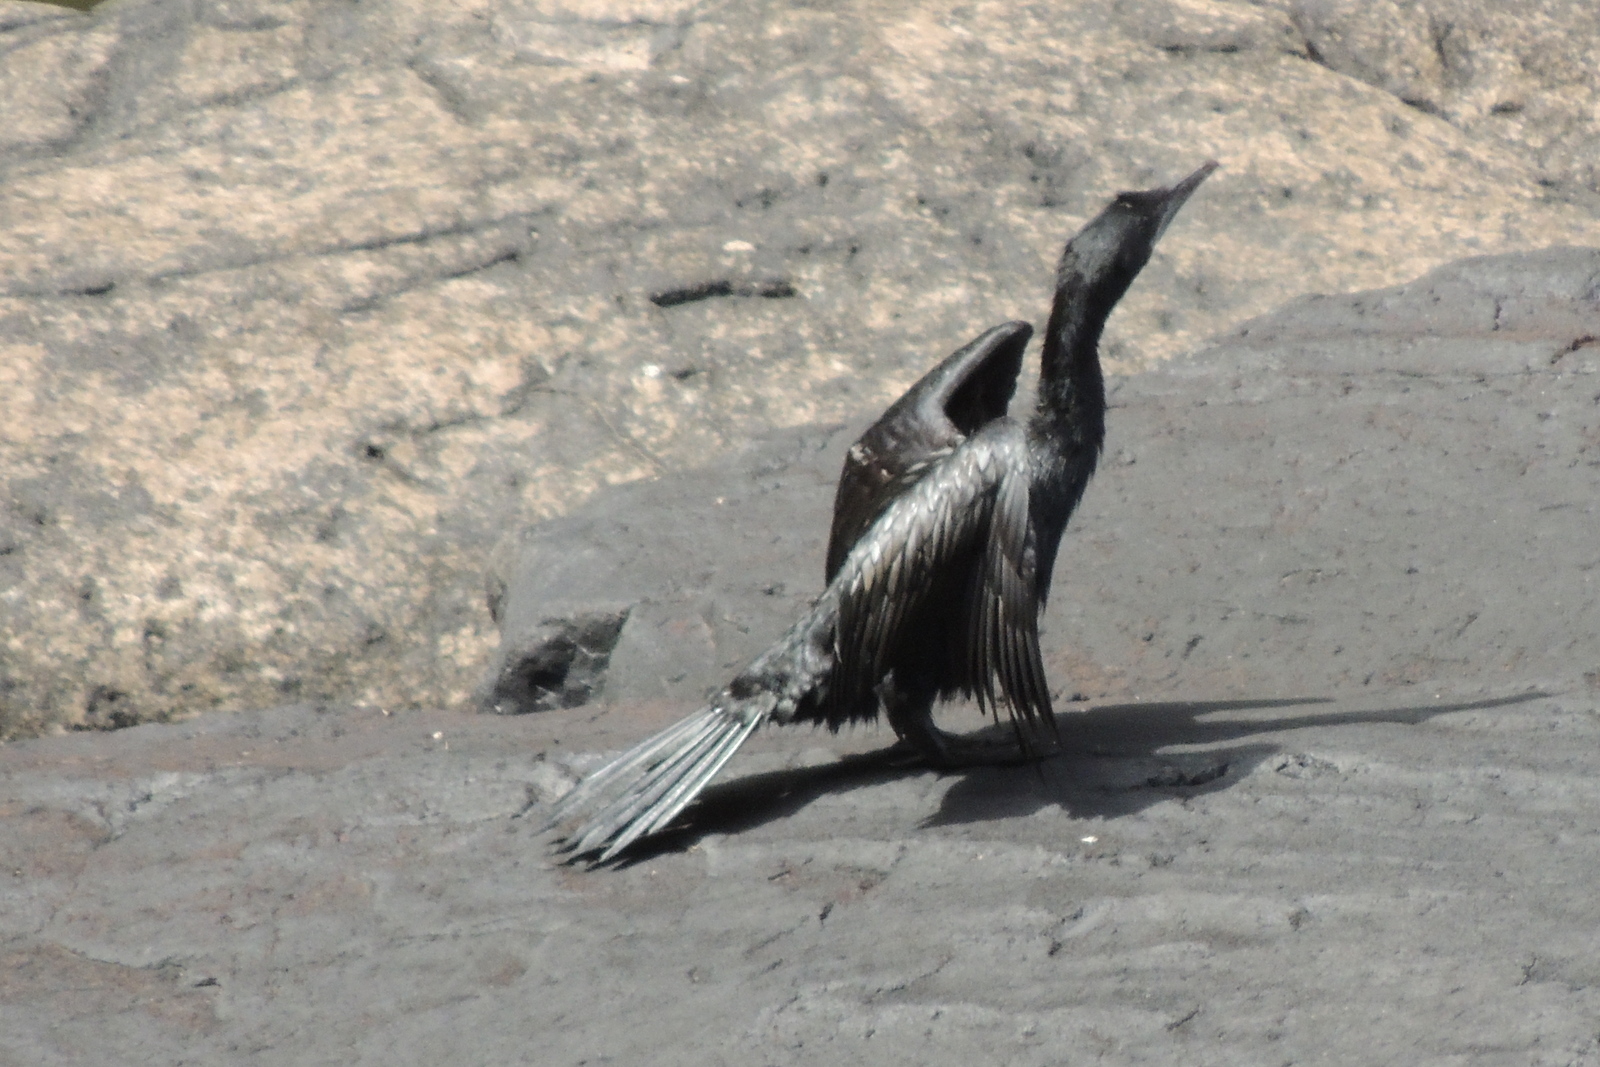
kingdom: Animalia
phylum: Chordata
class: Aves
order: Suliformes
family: Phalacrocoracidae
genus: Microcarbo
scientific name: Microcarbo niger
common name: Little cormorant
